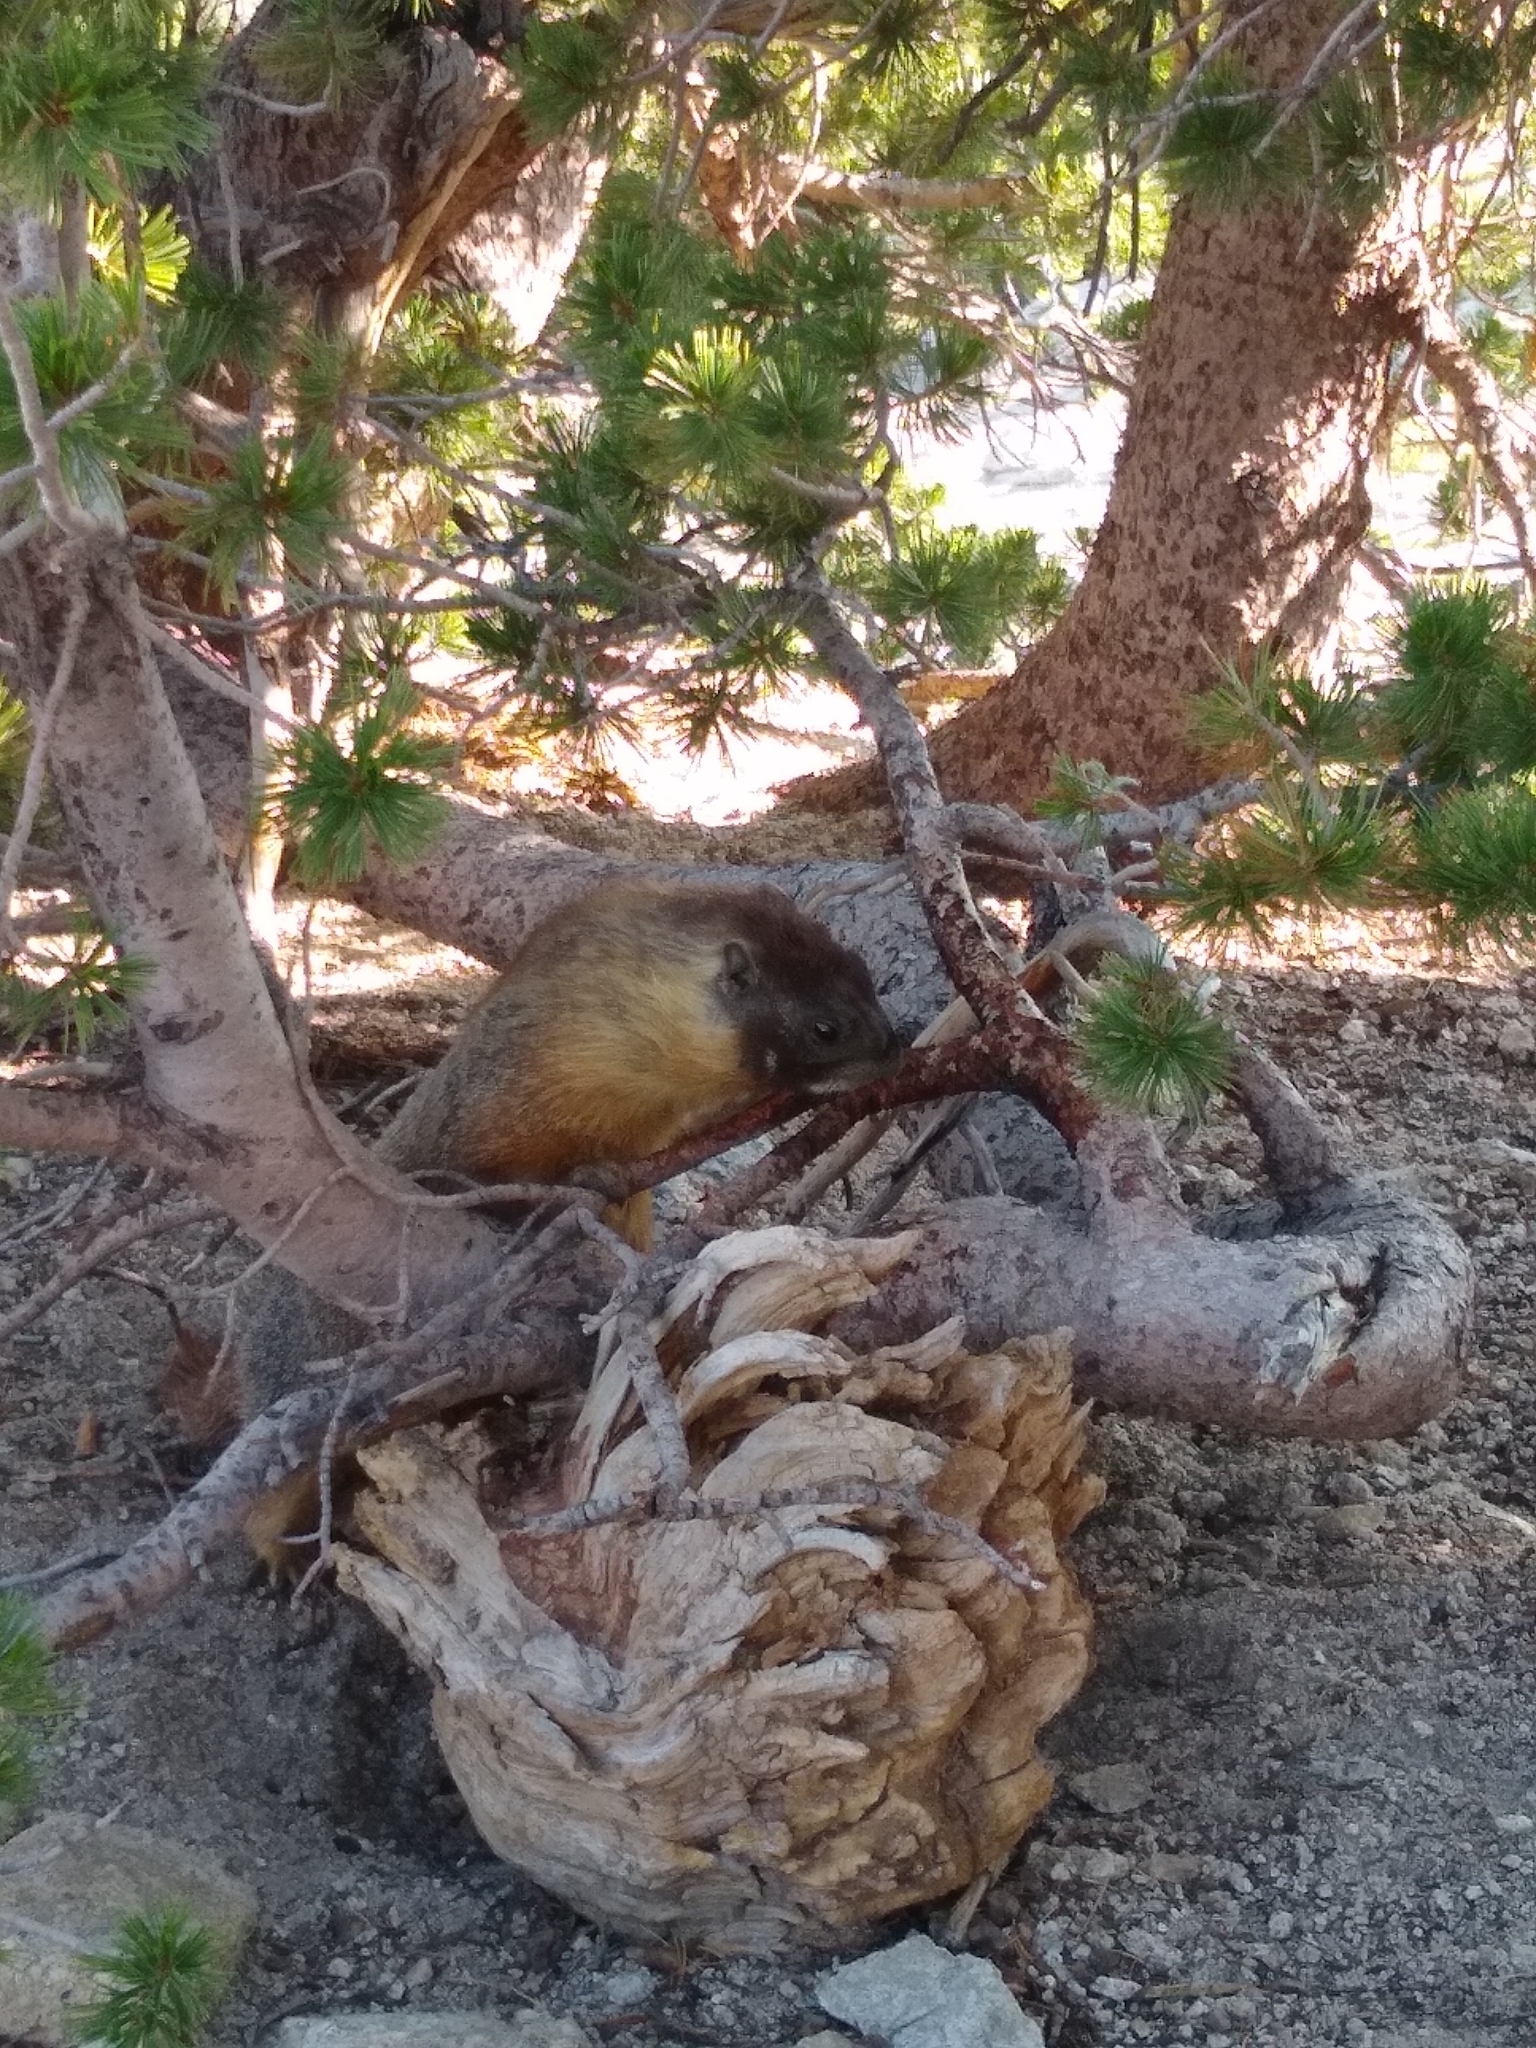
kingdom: Animalia
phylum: Chordata
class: Mammalia
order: Rodentia
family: Sciuridae
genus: Marmota
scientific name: Marmota flaviventris
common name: Yellow-bellied marmot
